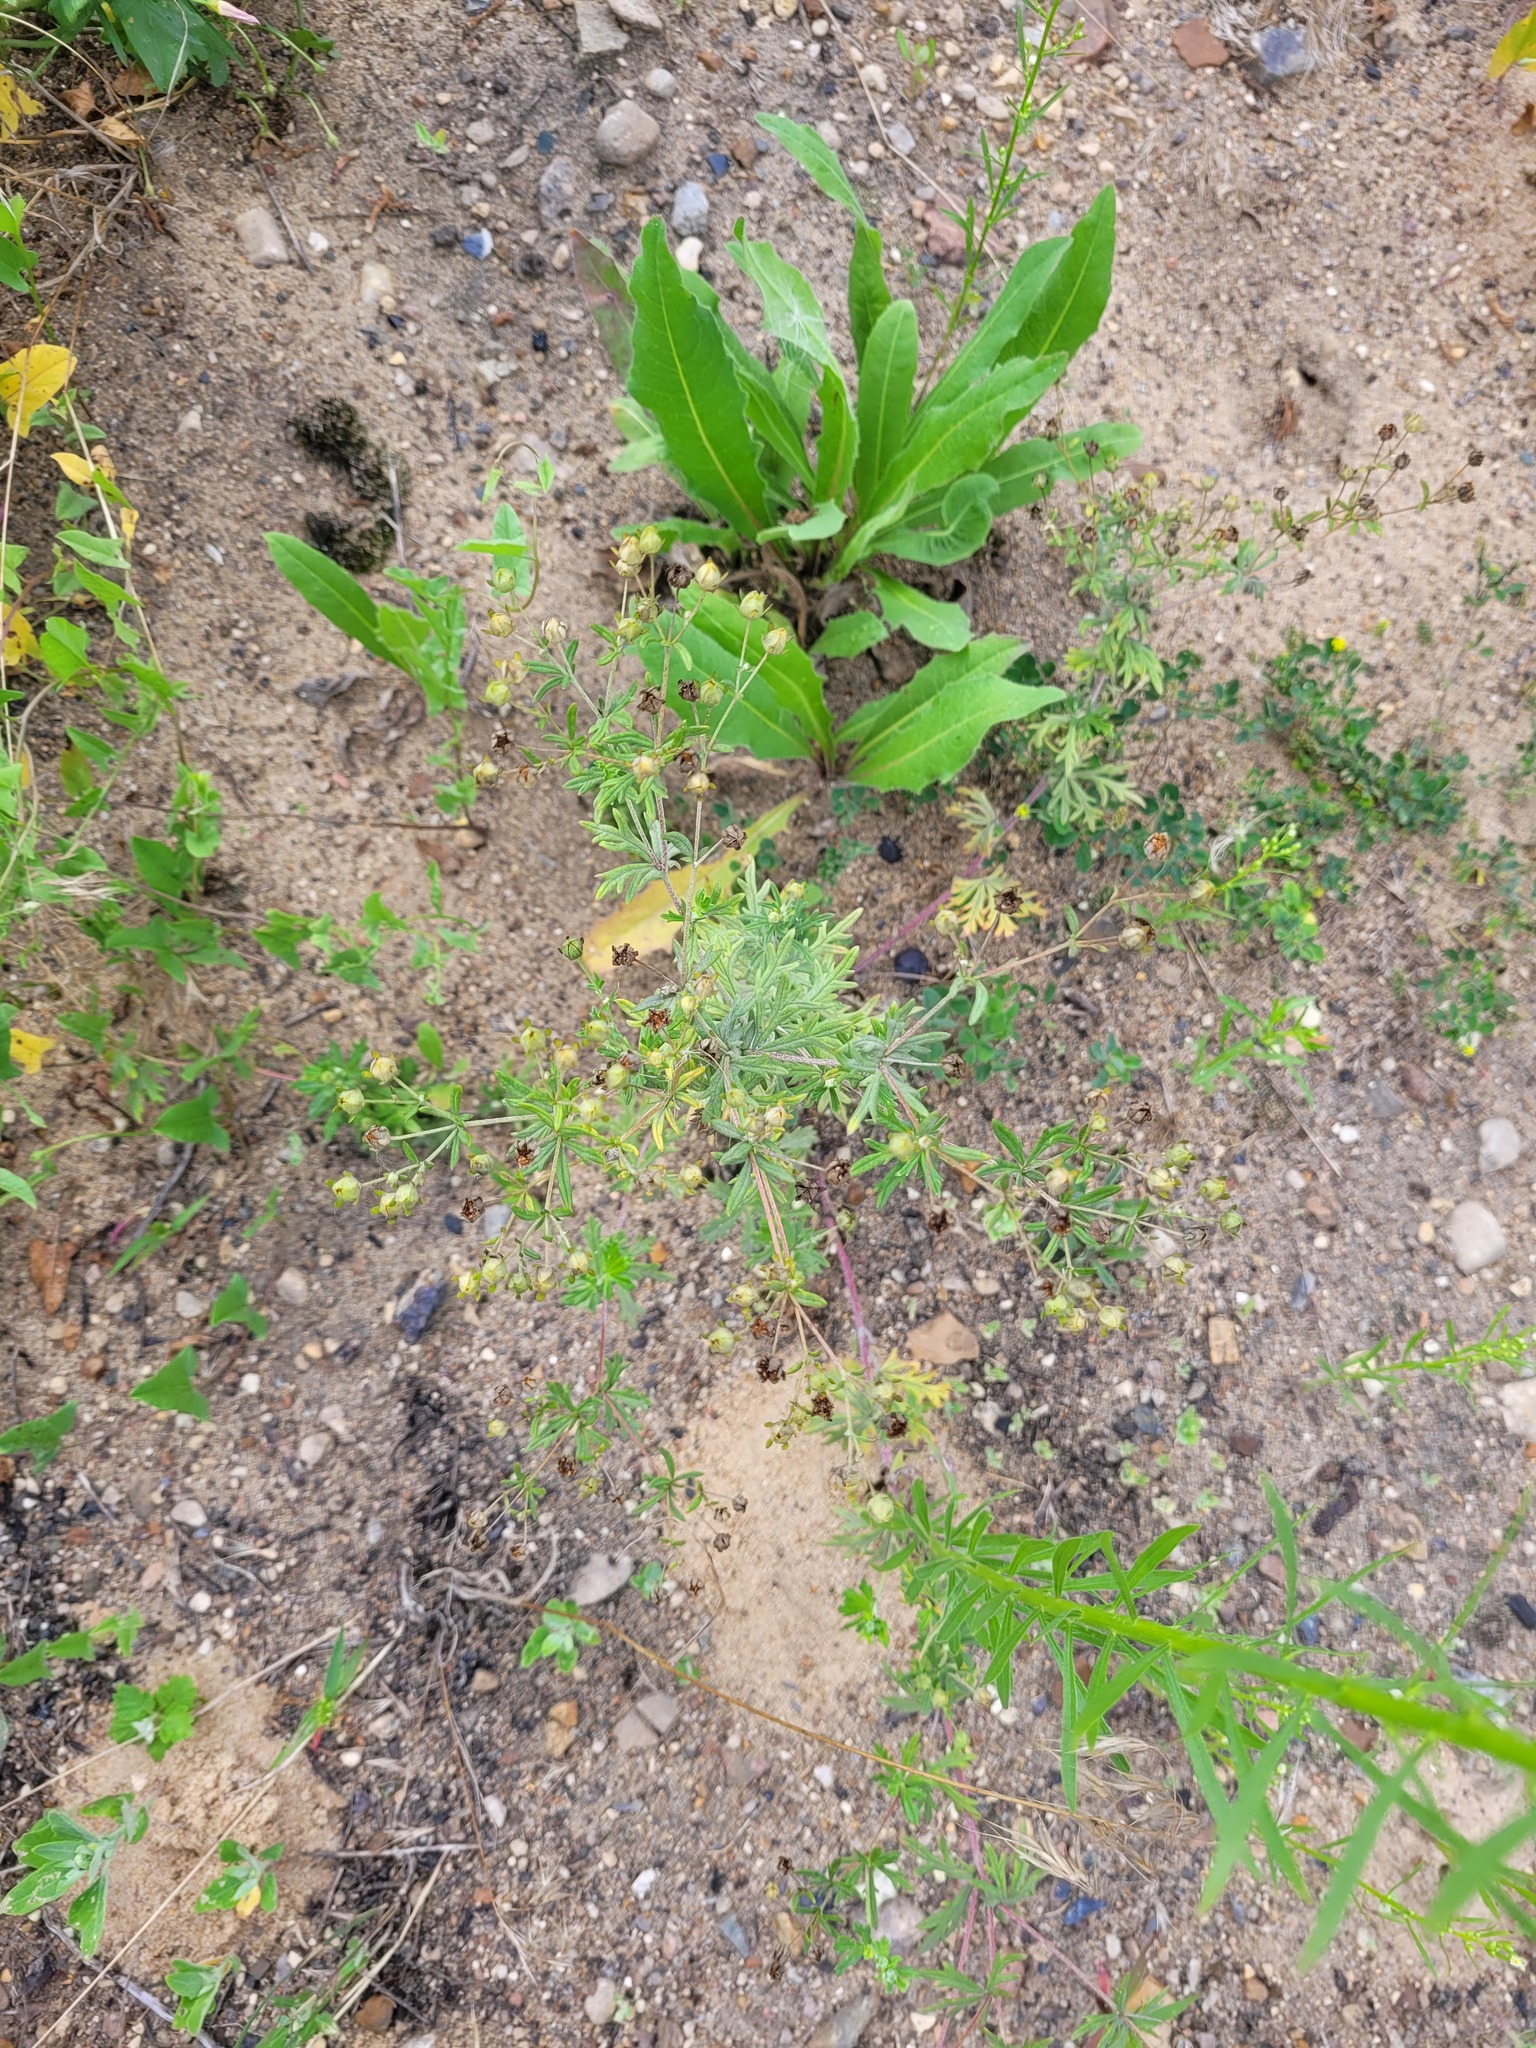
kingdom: Plantae
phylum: Tracheophyta
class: Magnoliopsida
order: Rosales
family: Rosaceae
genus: Potentilla
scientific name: Potentilla argentea
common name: Hoary cinquefoil
